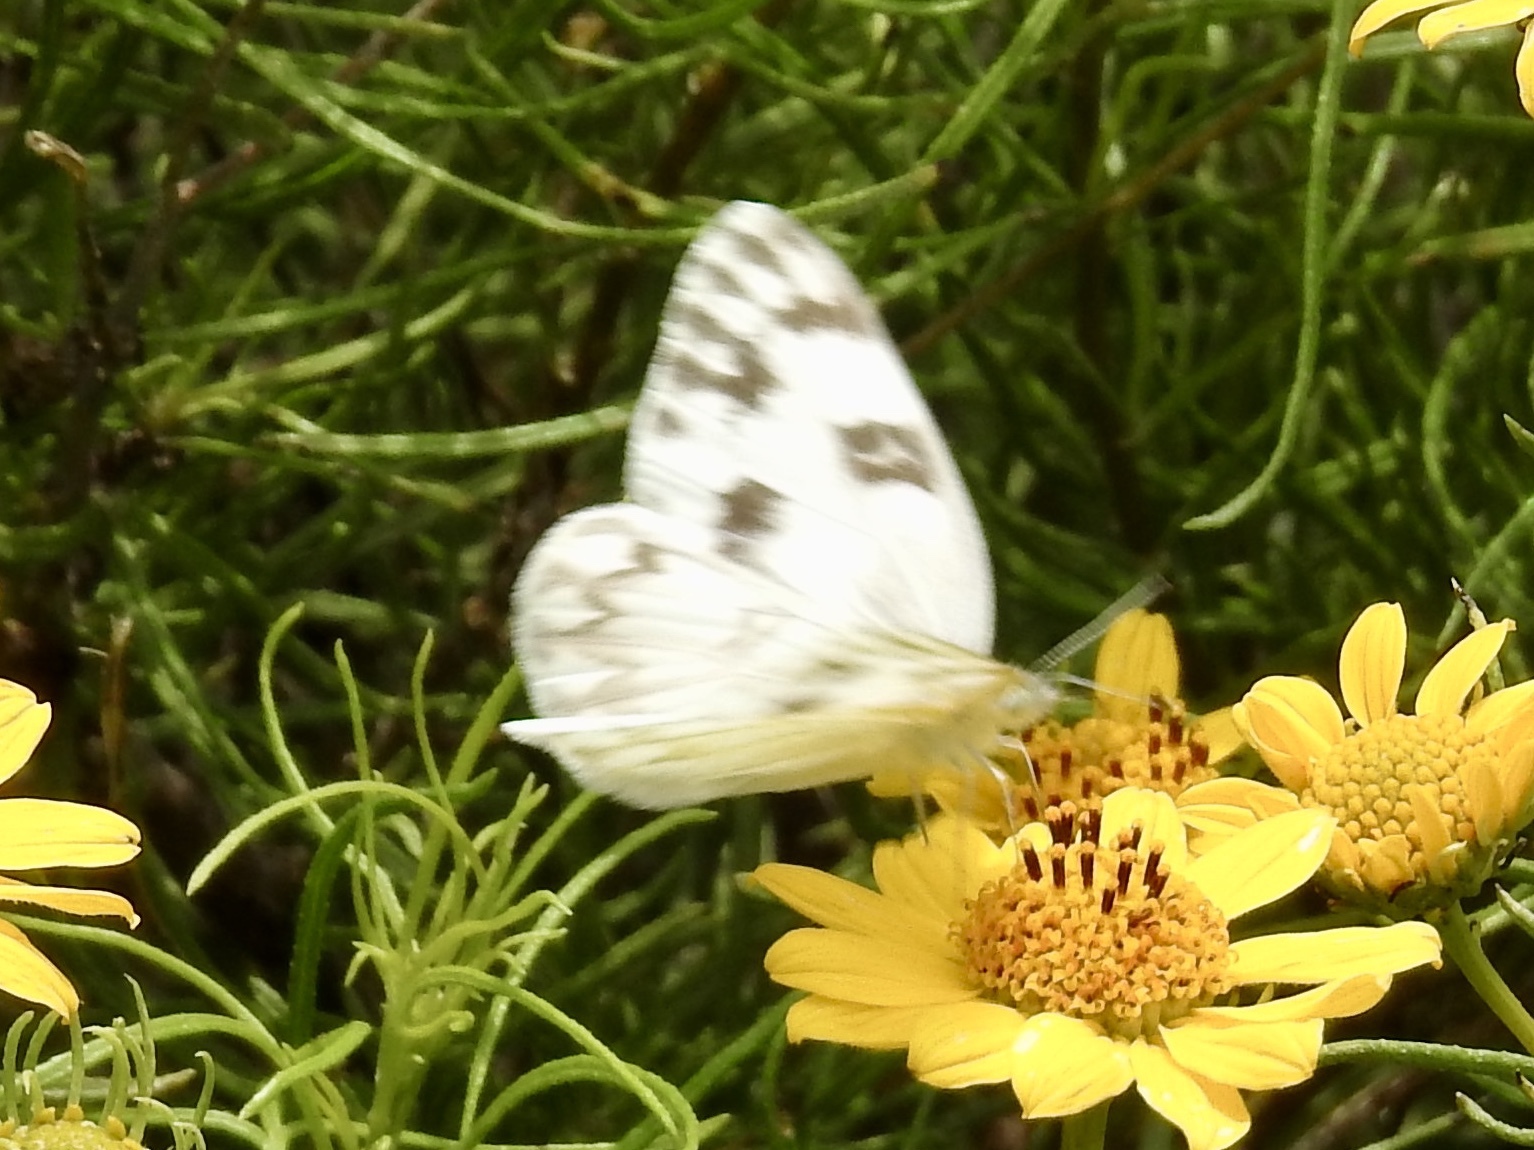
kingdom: Animalia
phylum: Arthropoda
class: Insecta
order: Lepidoptera
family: Pieridae
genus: Pontia
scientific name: Pontia protodice
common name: Checkered white
